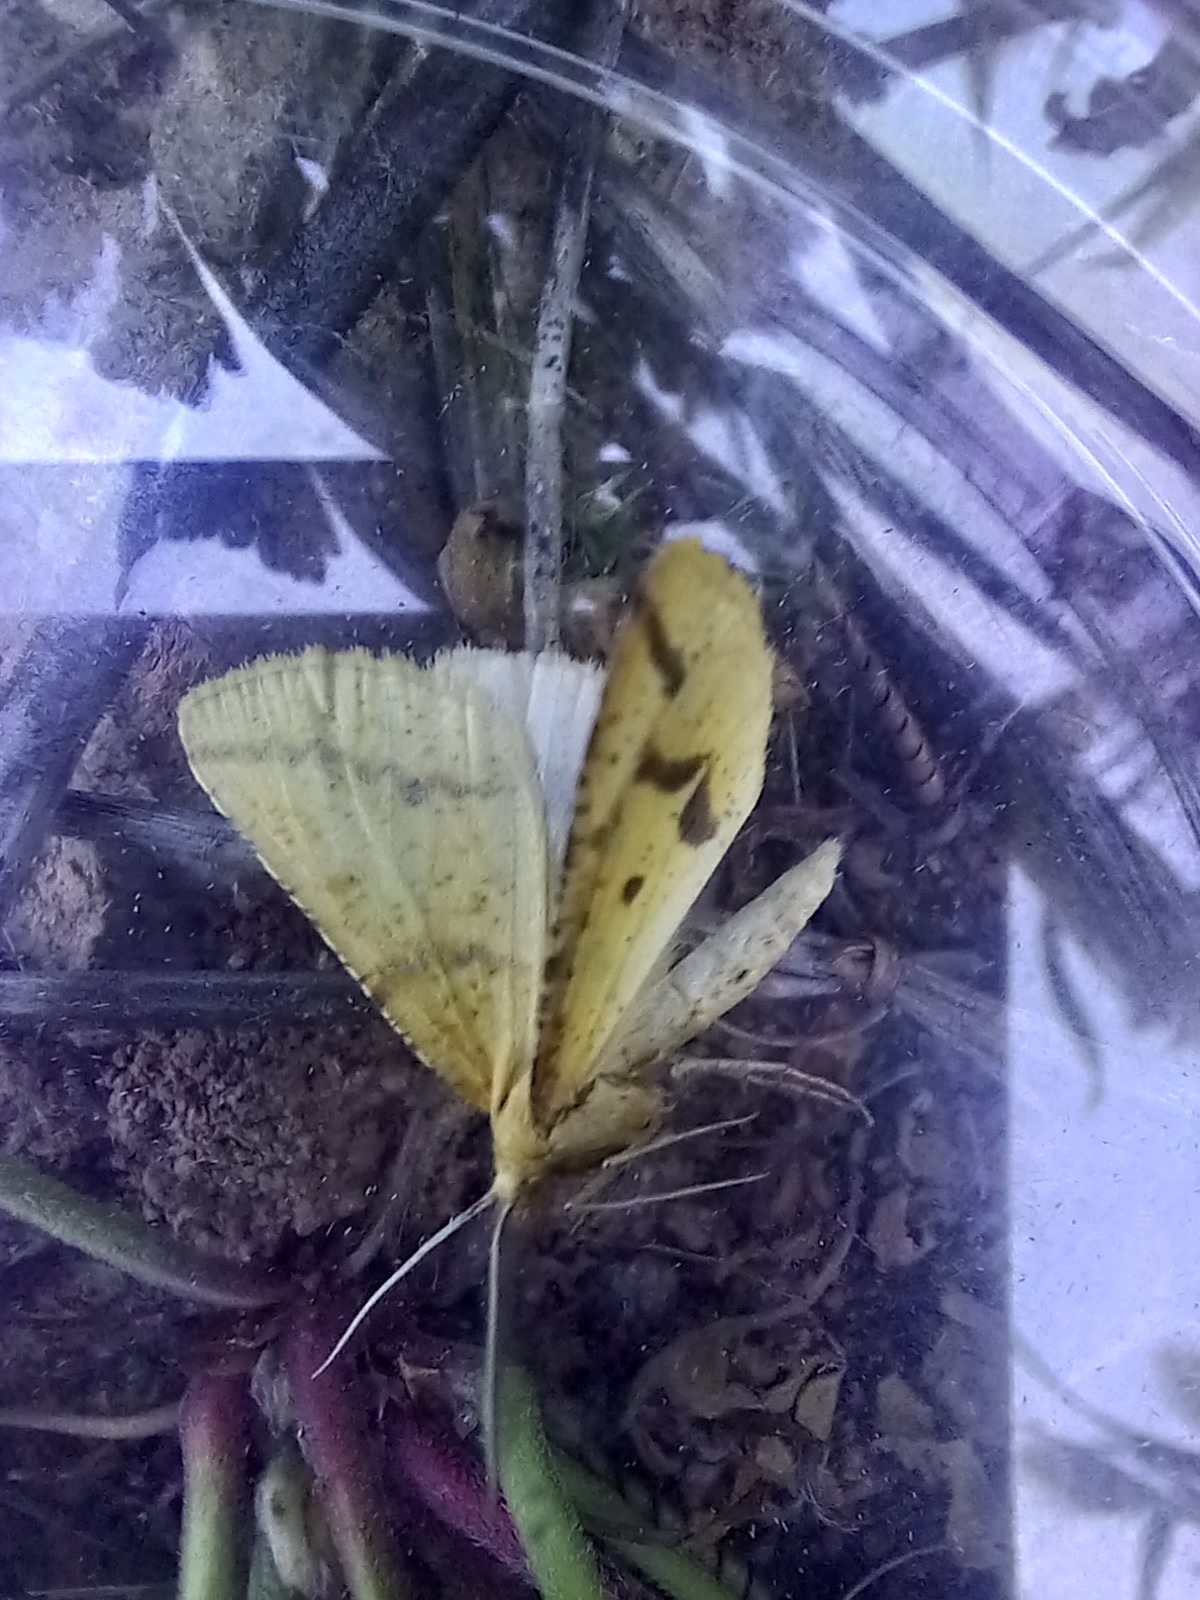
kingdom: Animalia
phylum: Arthropoda
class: Insecta
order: Lepidoptera
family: Geometridae
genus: Aspitates
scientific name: Aspitates ochrearia
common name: Yellow belle
